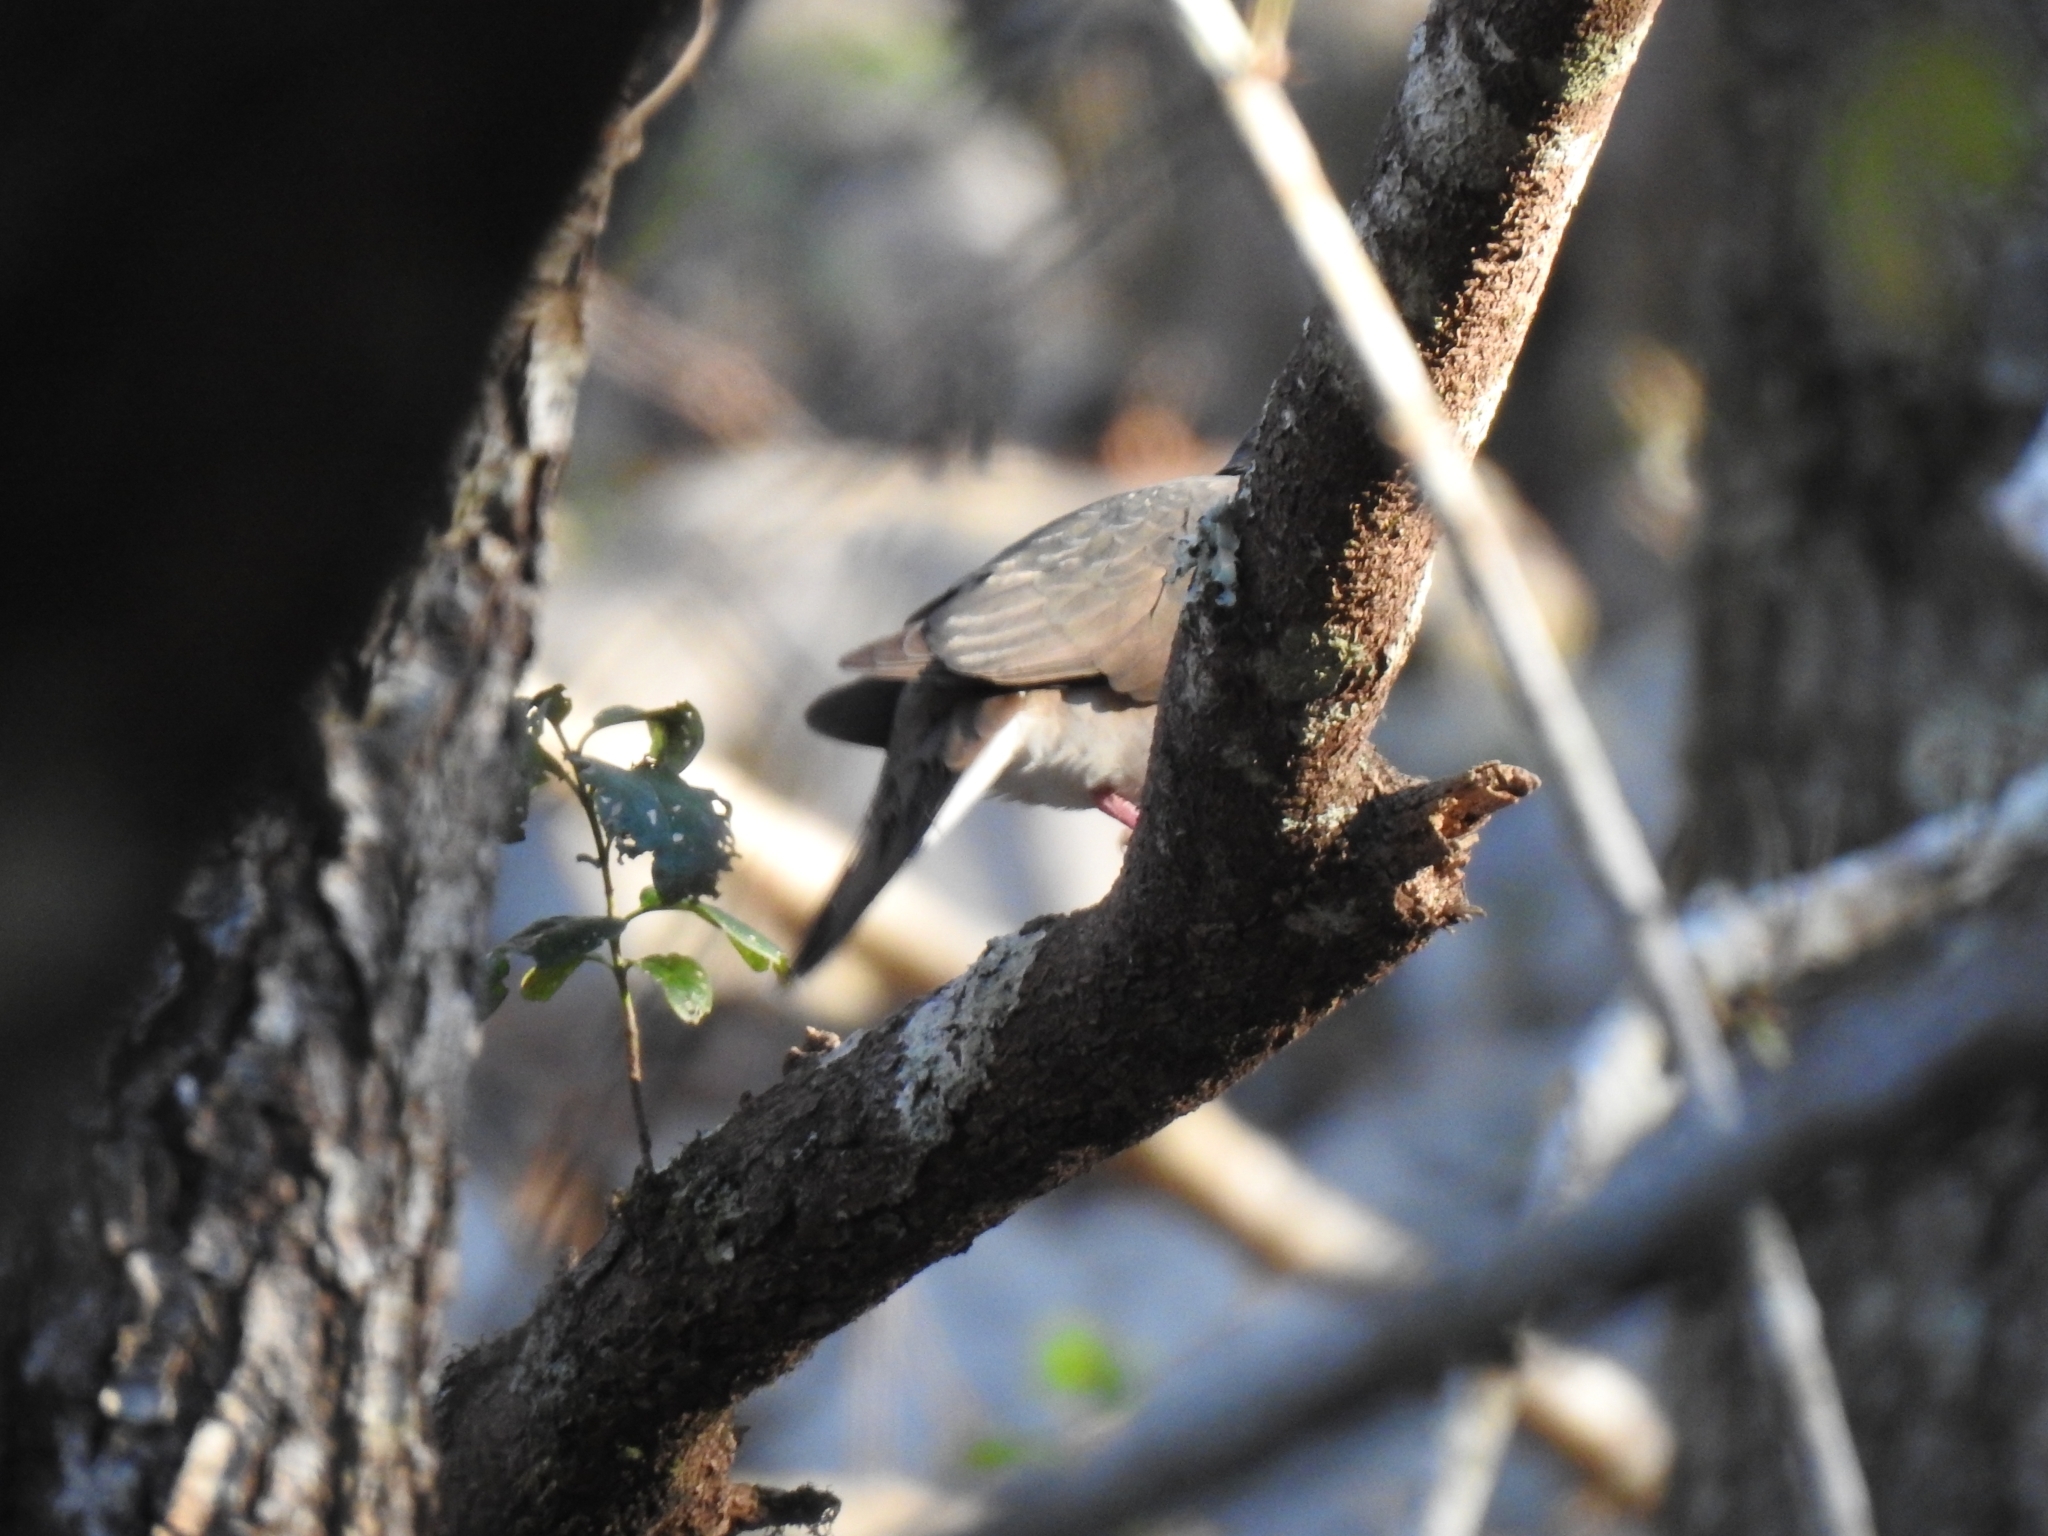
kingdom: Animalia
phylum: Chordata
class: Aves
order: Columbiformes
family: Columbidae
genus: Leptotila
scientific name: Leptotila verreauxi
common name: White-tipped dove
